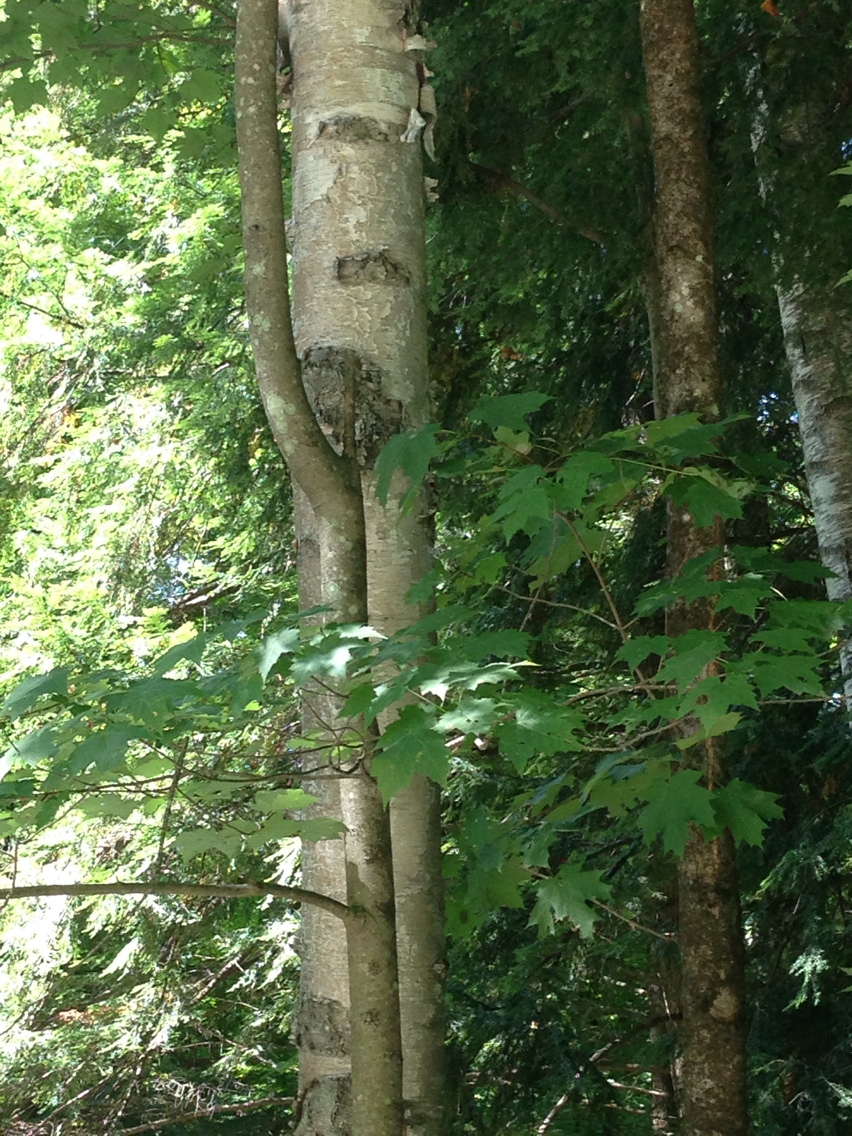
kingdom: Plantae
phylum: Tracheophyta
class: Magnoliopsida
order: Fagales
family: Betulaceae
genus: Betula
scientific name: Betula papyrifera
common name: Paper birch
